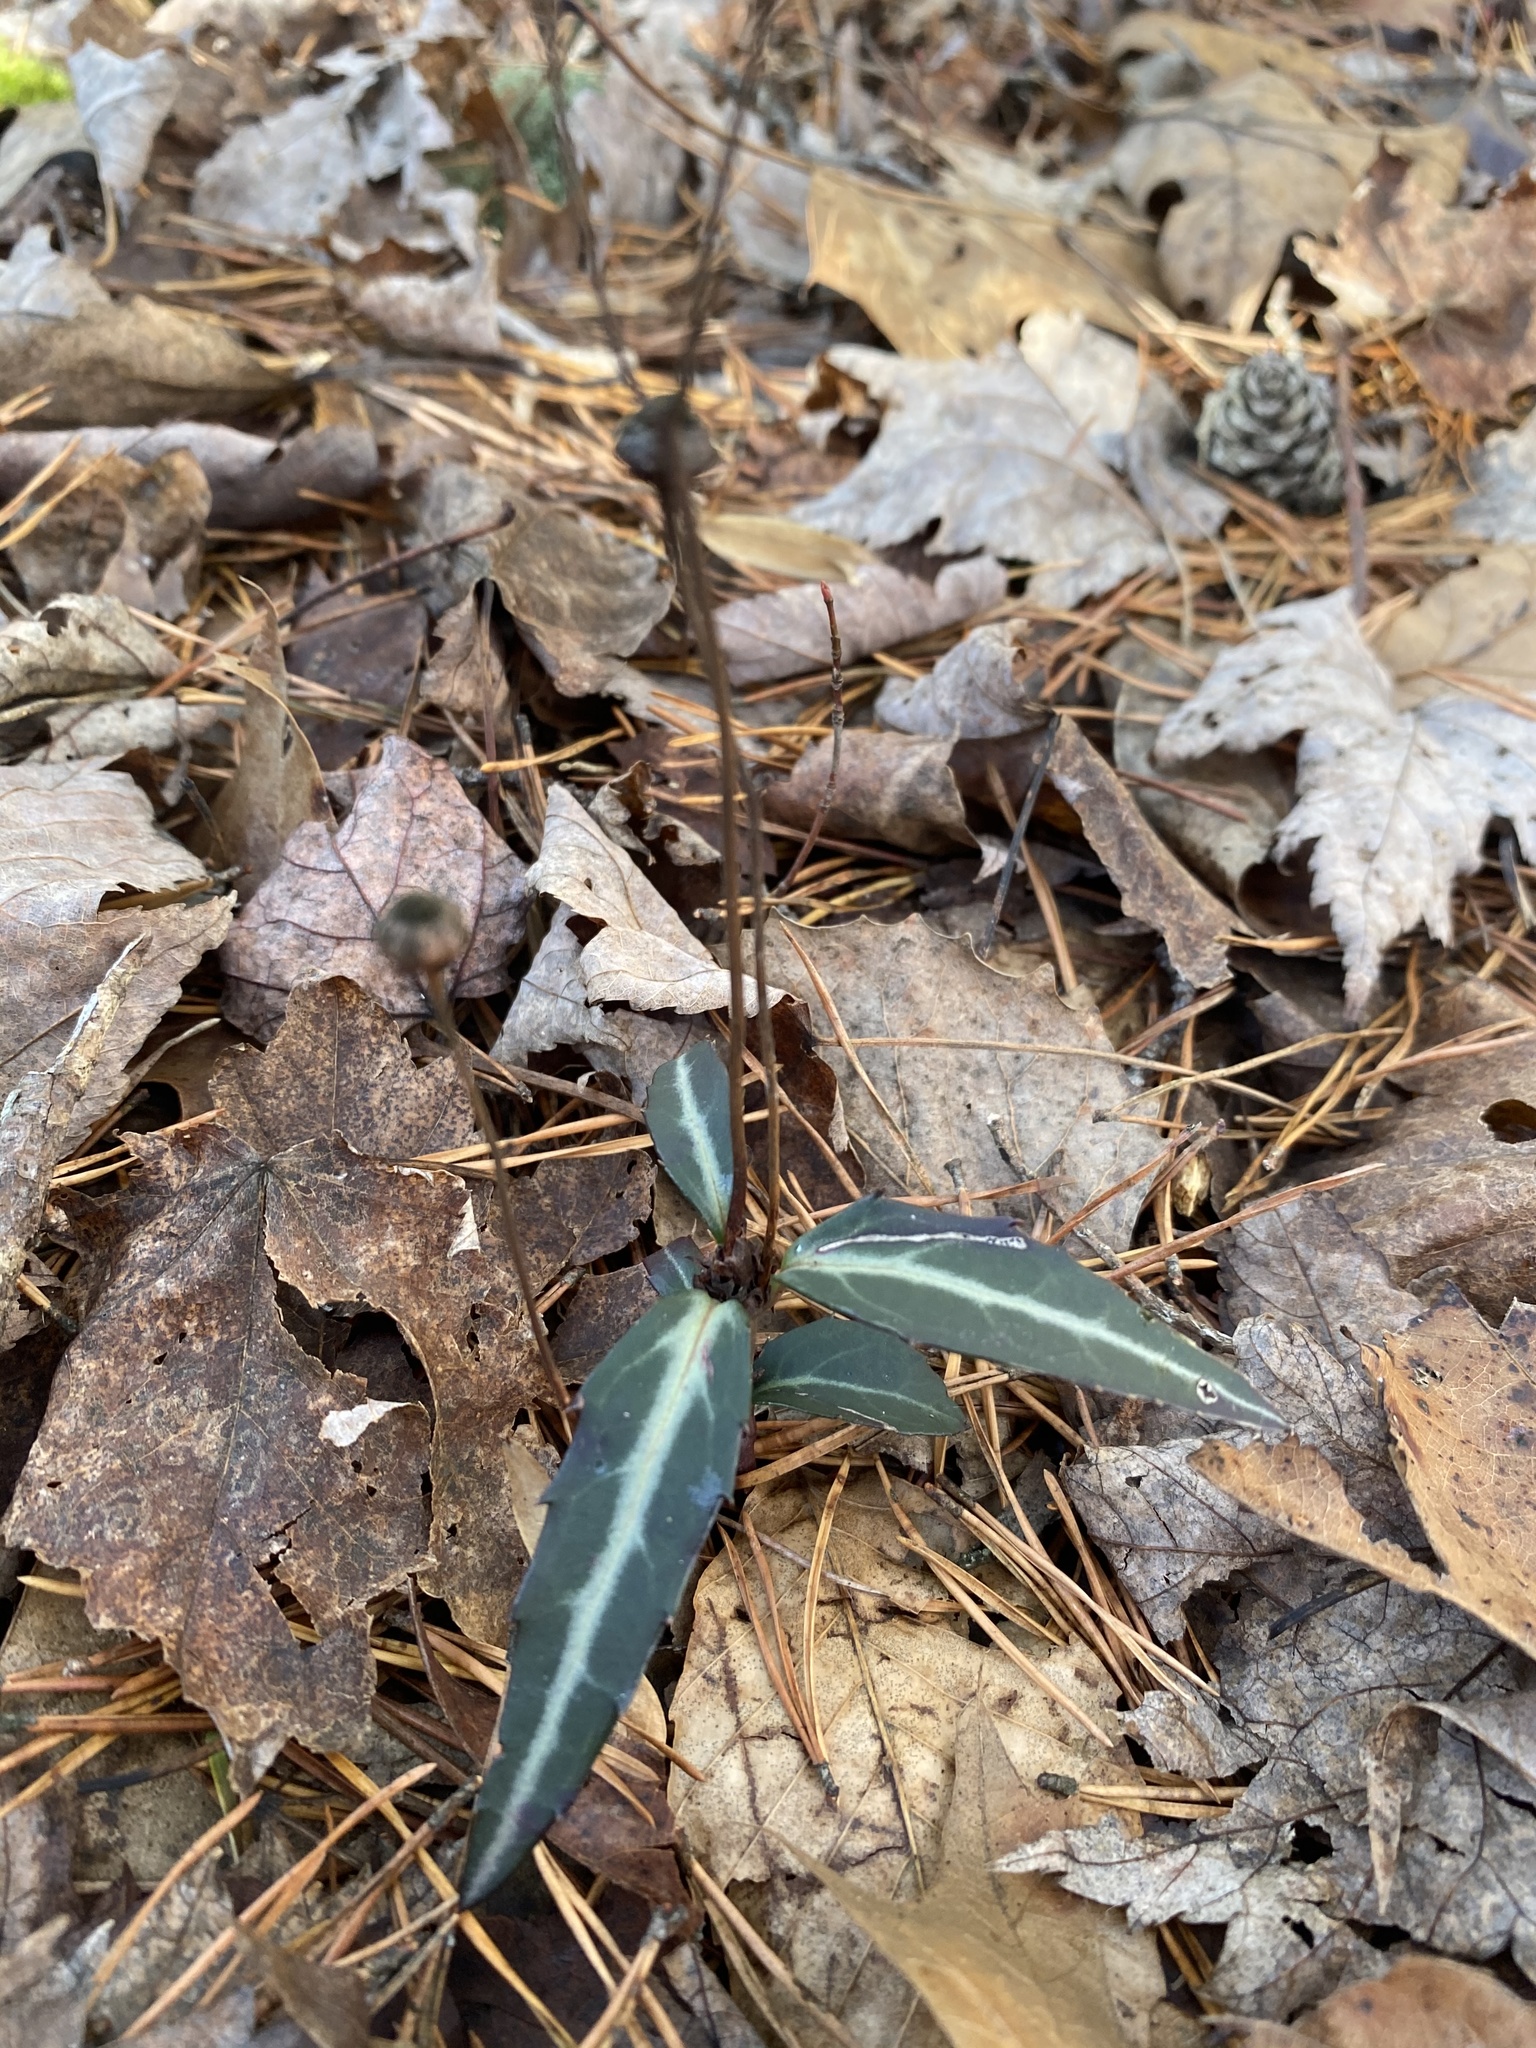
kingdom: Plantae
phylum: Tracheophyta
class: Magnoliopsida
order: Ericales
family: Ericaceae
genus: Chimaphila
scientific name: Chimaphila maculata
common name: Spotted pipsissewa
